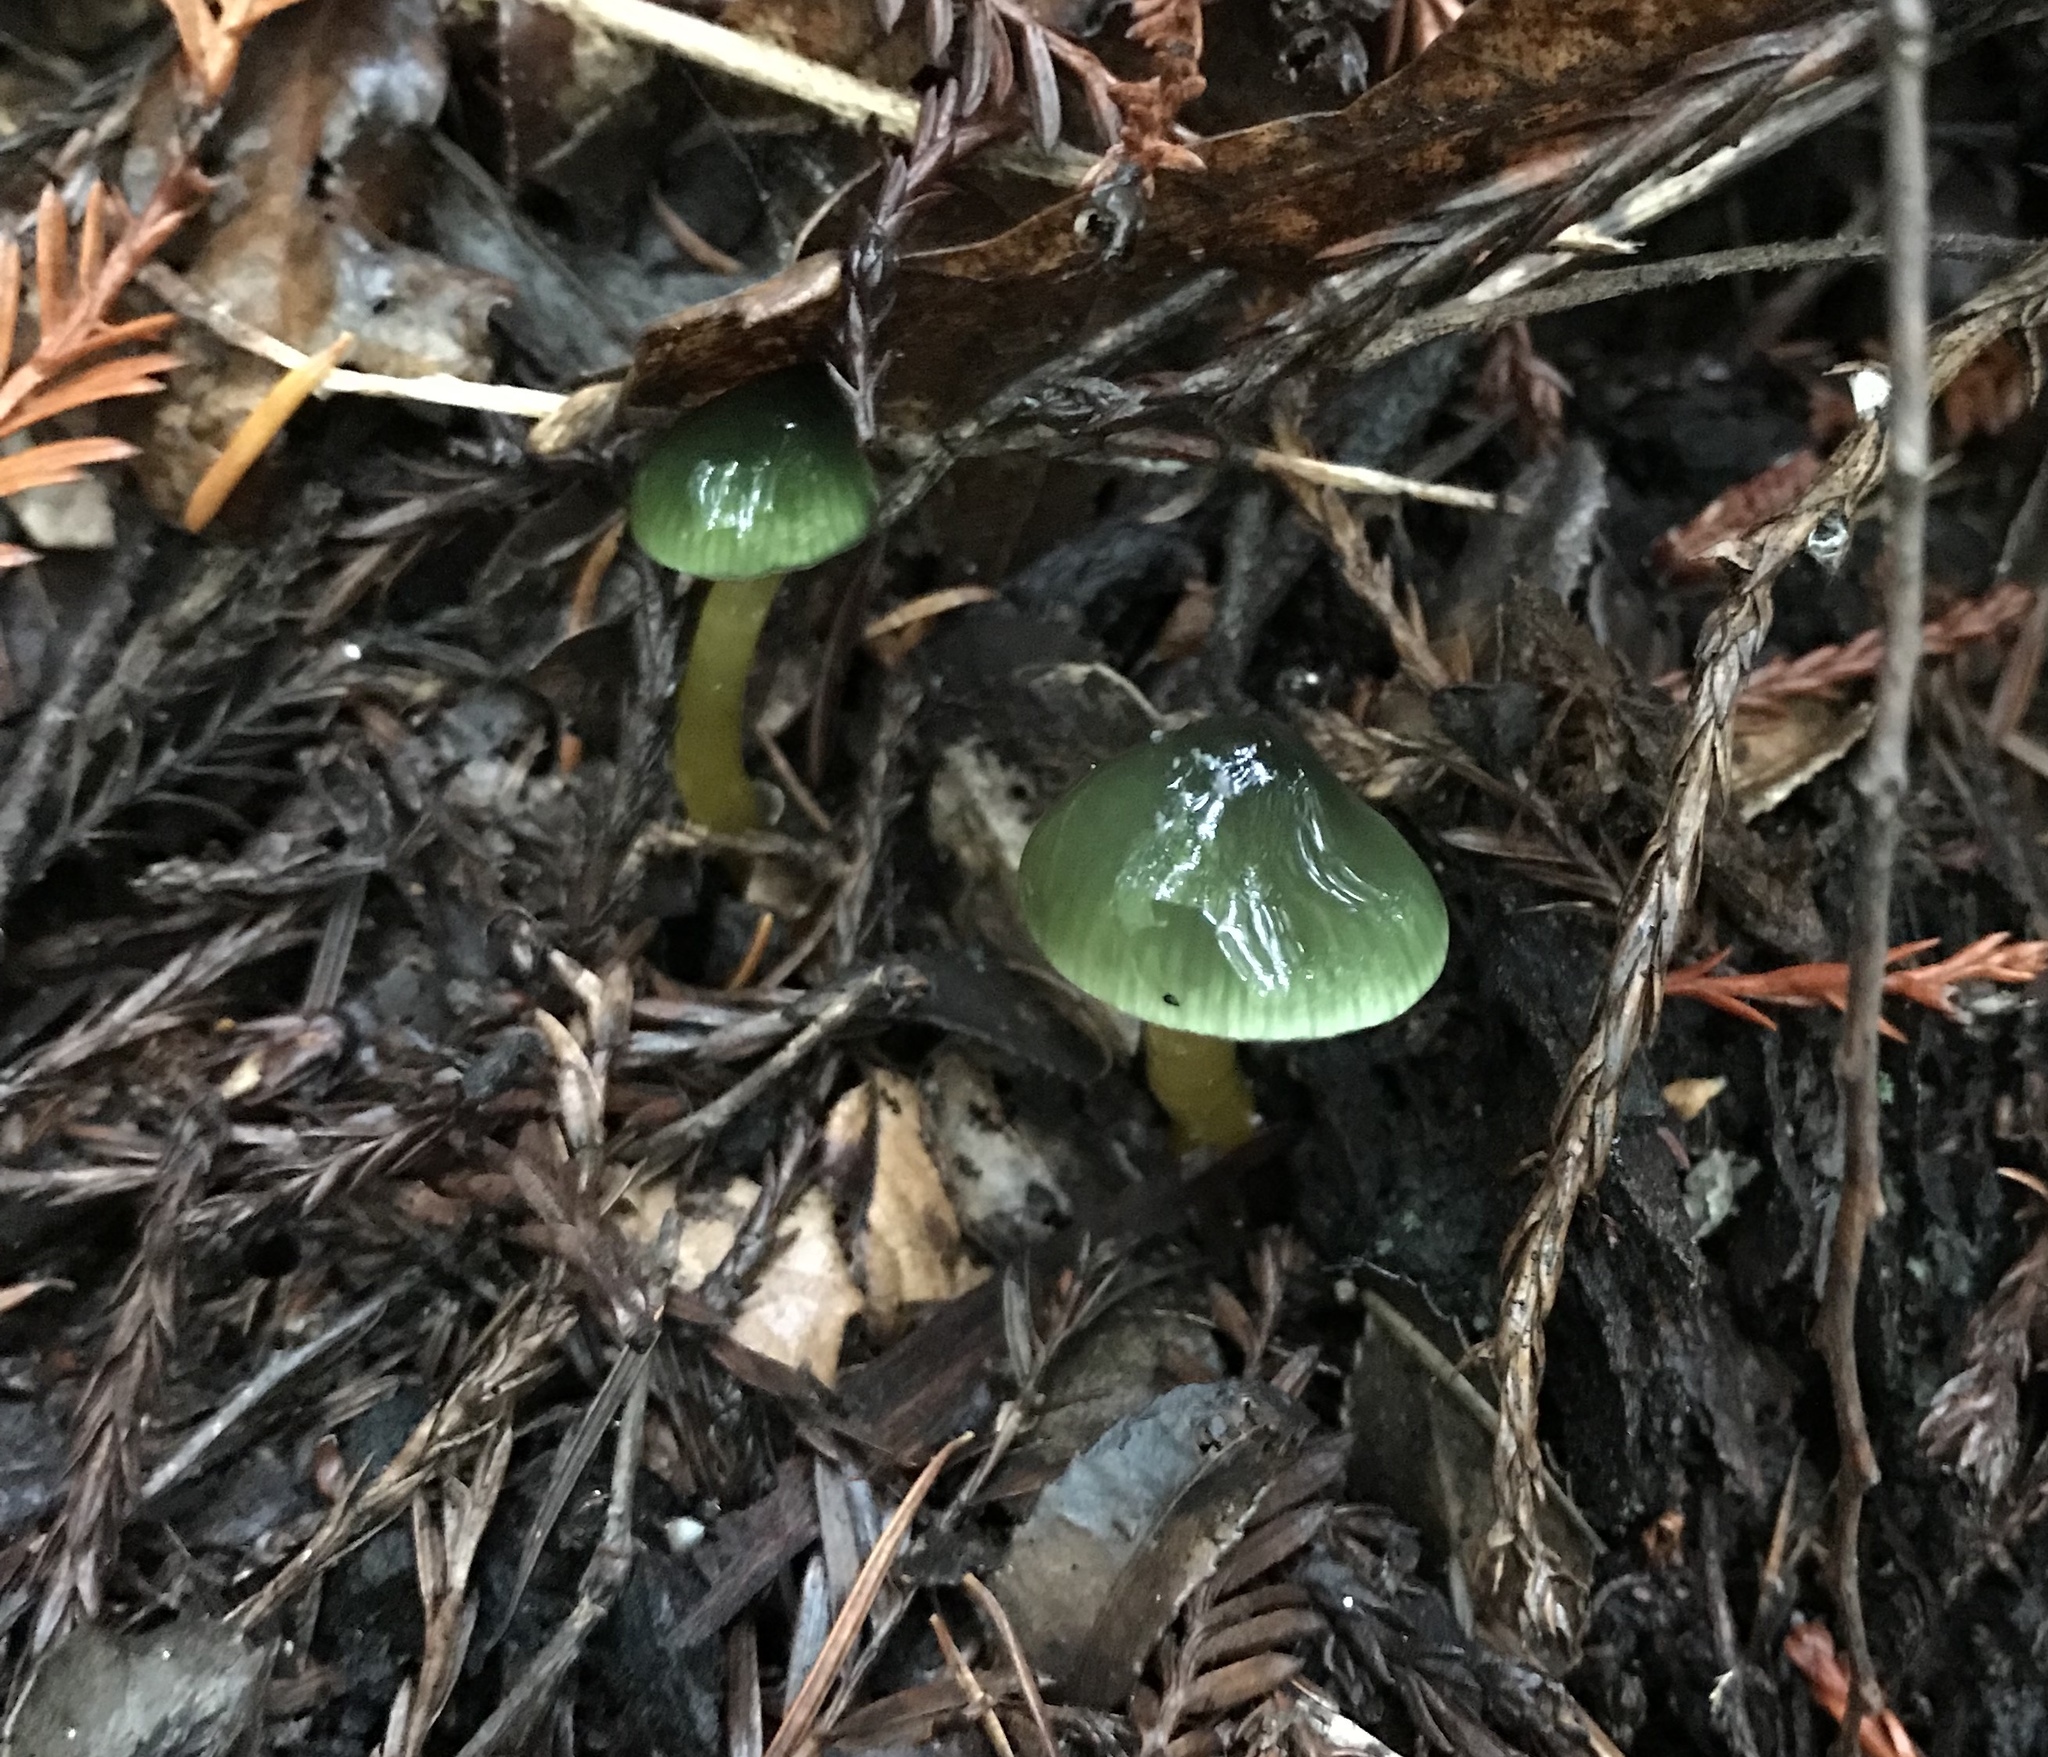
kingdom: Fungi
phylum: Basidiomycota
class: Agaricomycetes
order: Agaricales
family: Hygrophoraceae
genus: Gliophorus
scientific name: Gliophorus psittacinus
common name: Parrot wax-cap
